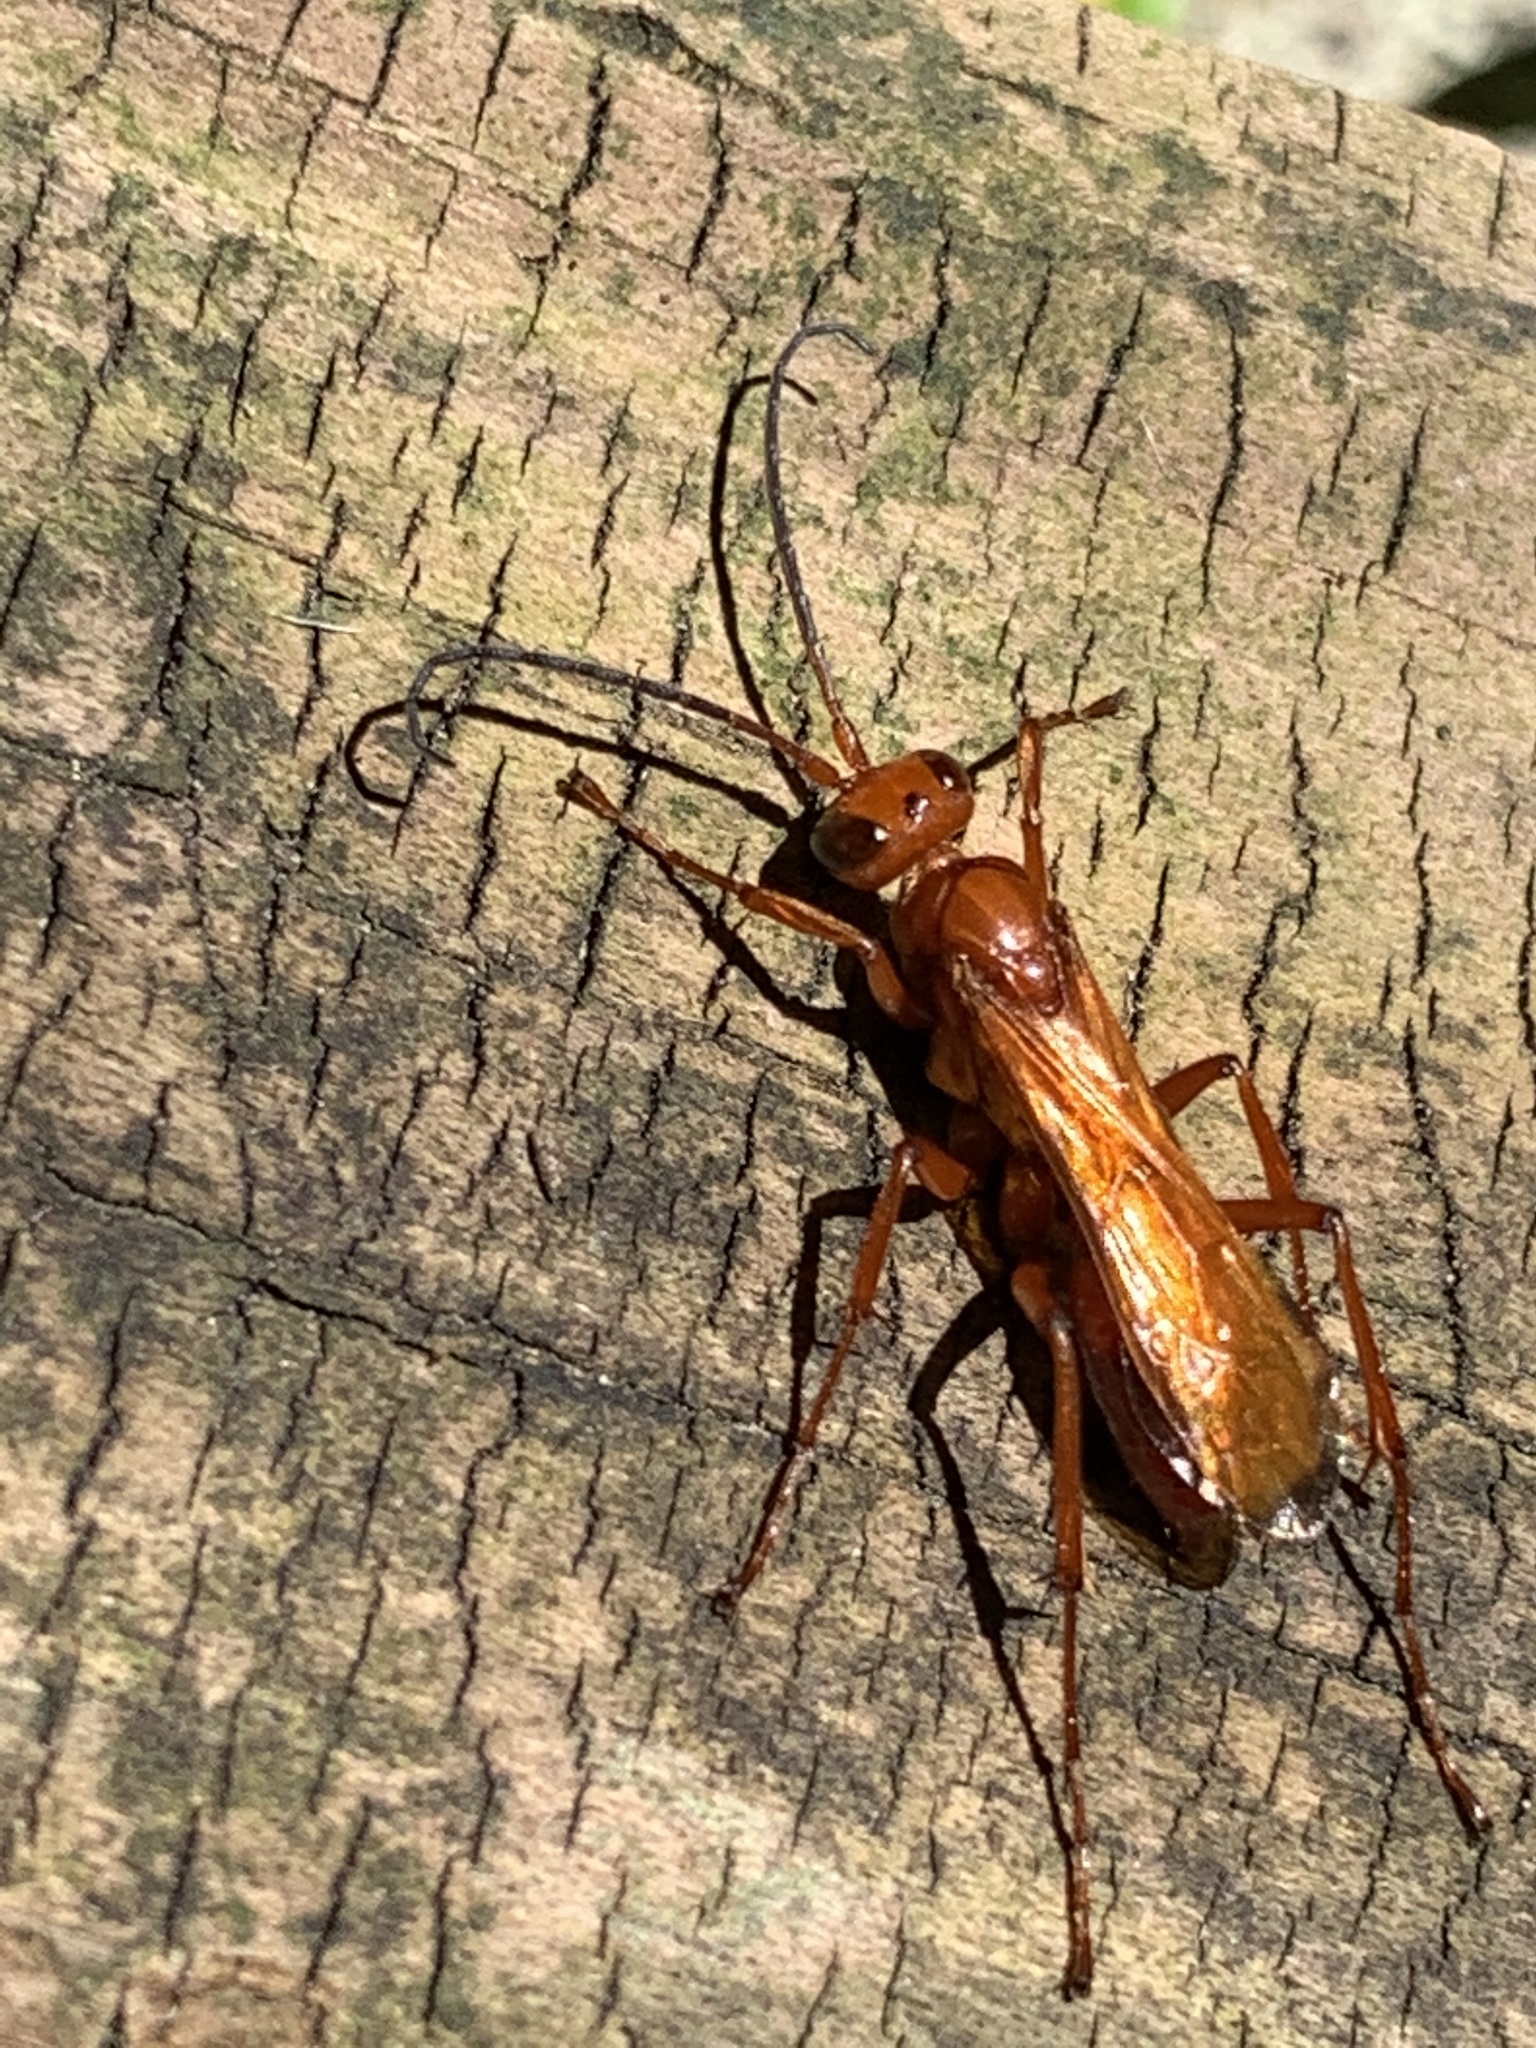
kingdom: Animalia
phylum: Arthropoda
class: Insecta
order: Hymenoptera
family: Pompilidae
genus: Sphictostethus
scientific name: Sphictostethus nitidus
